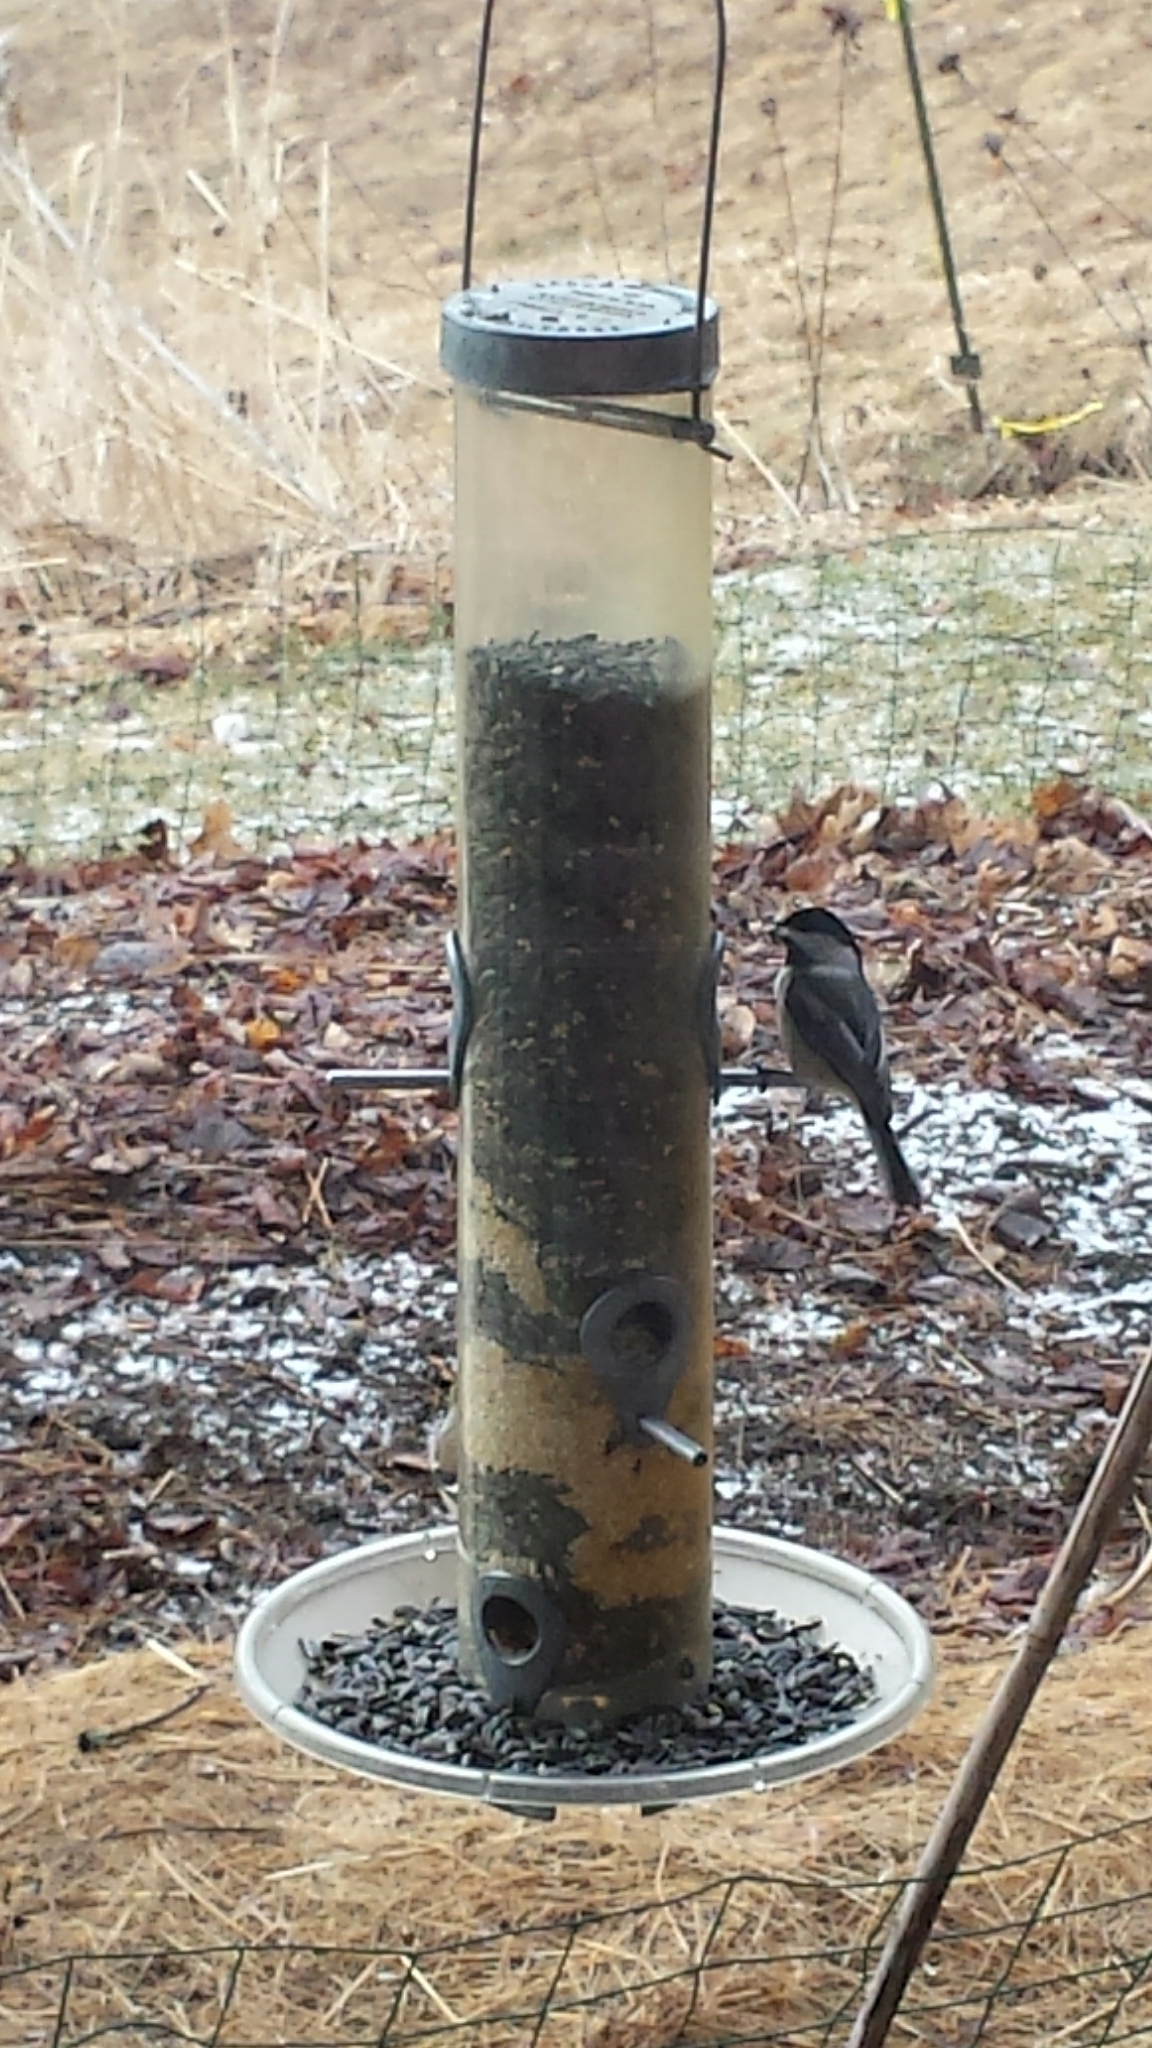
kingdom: Animalia
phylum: Chordata
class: Aves
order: Passeriformes
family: Paridae
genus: Poecile
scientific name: Poecile atricapillus
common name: Black-capped chickadee
